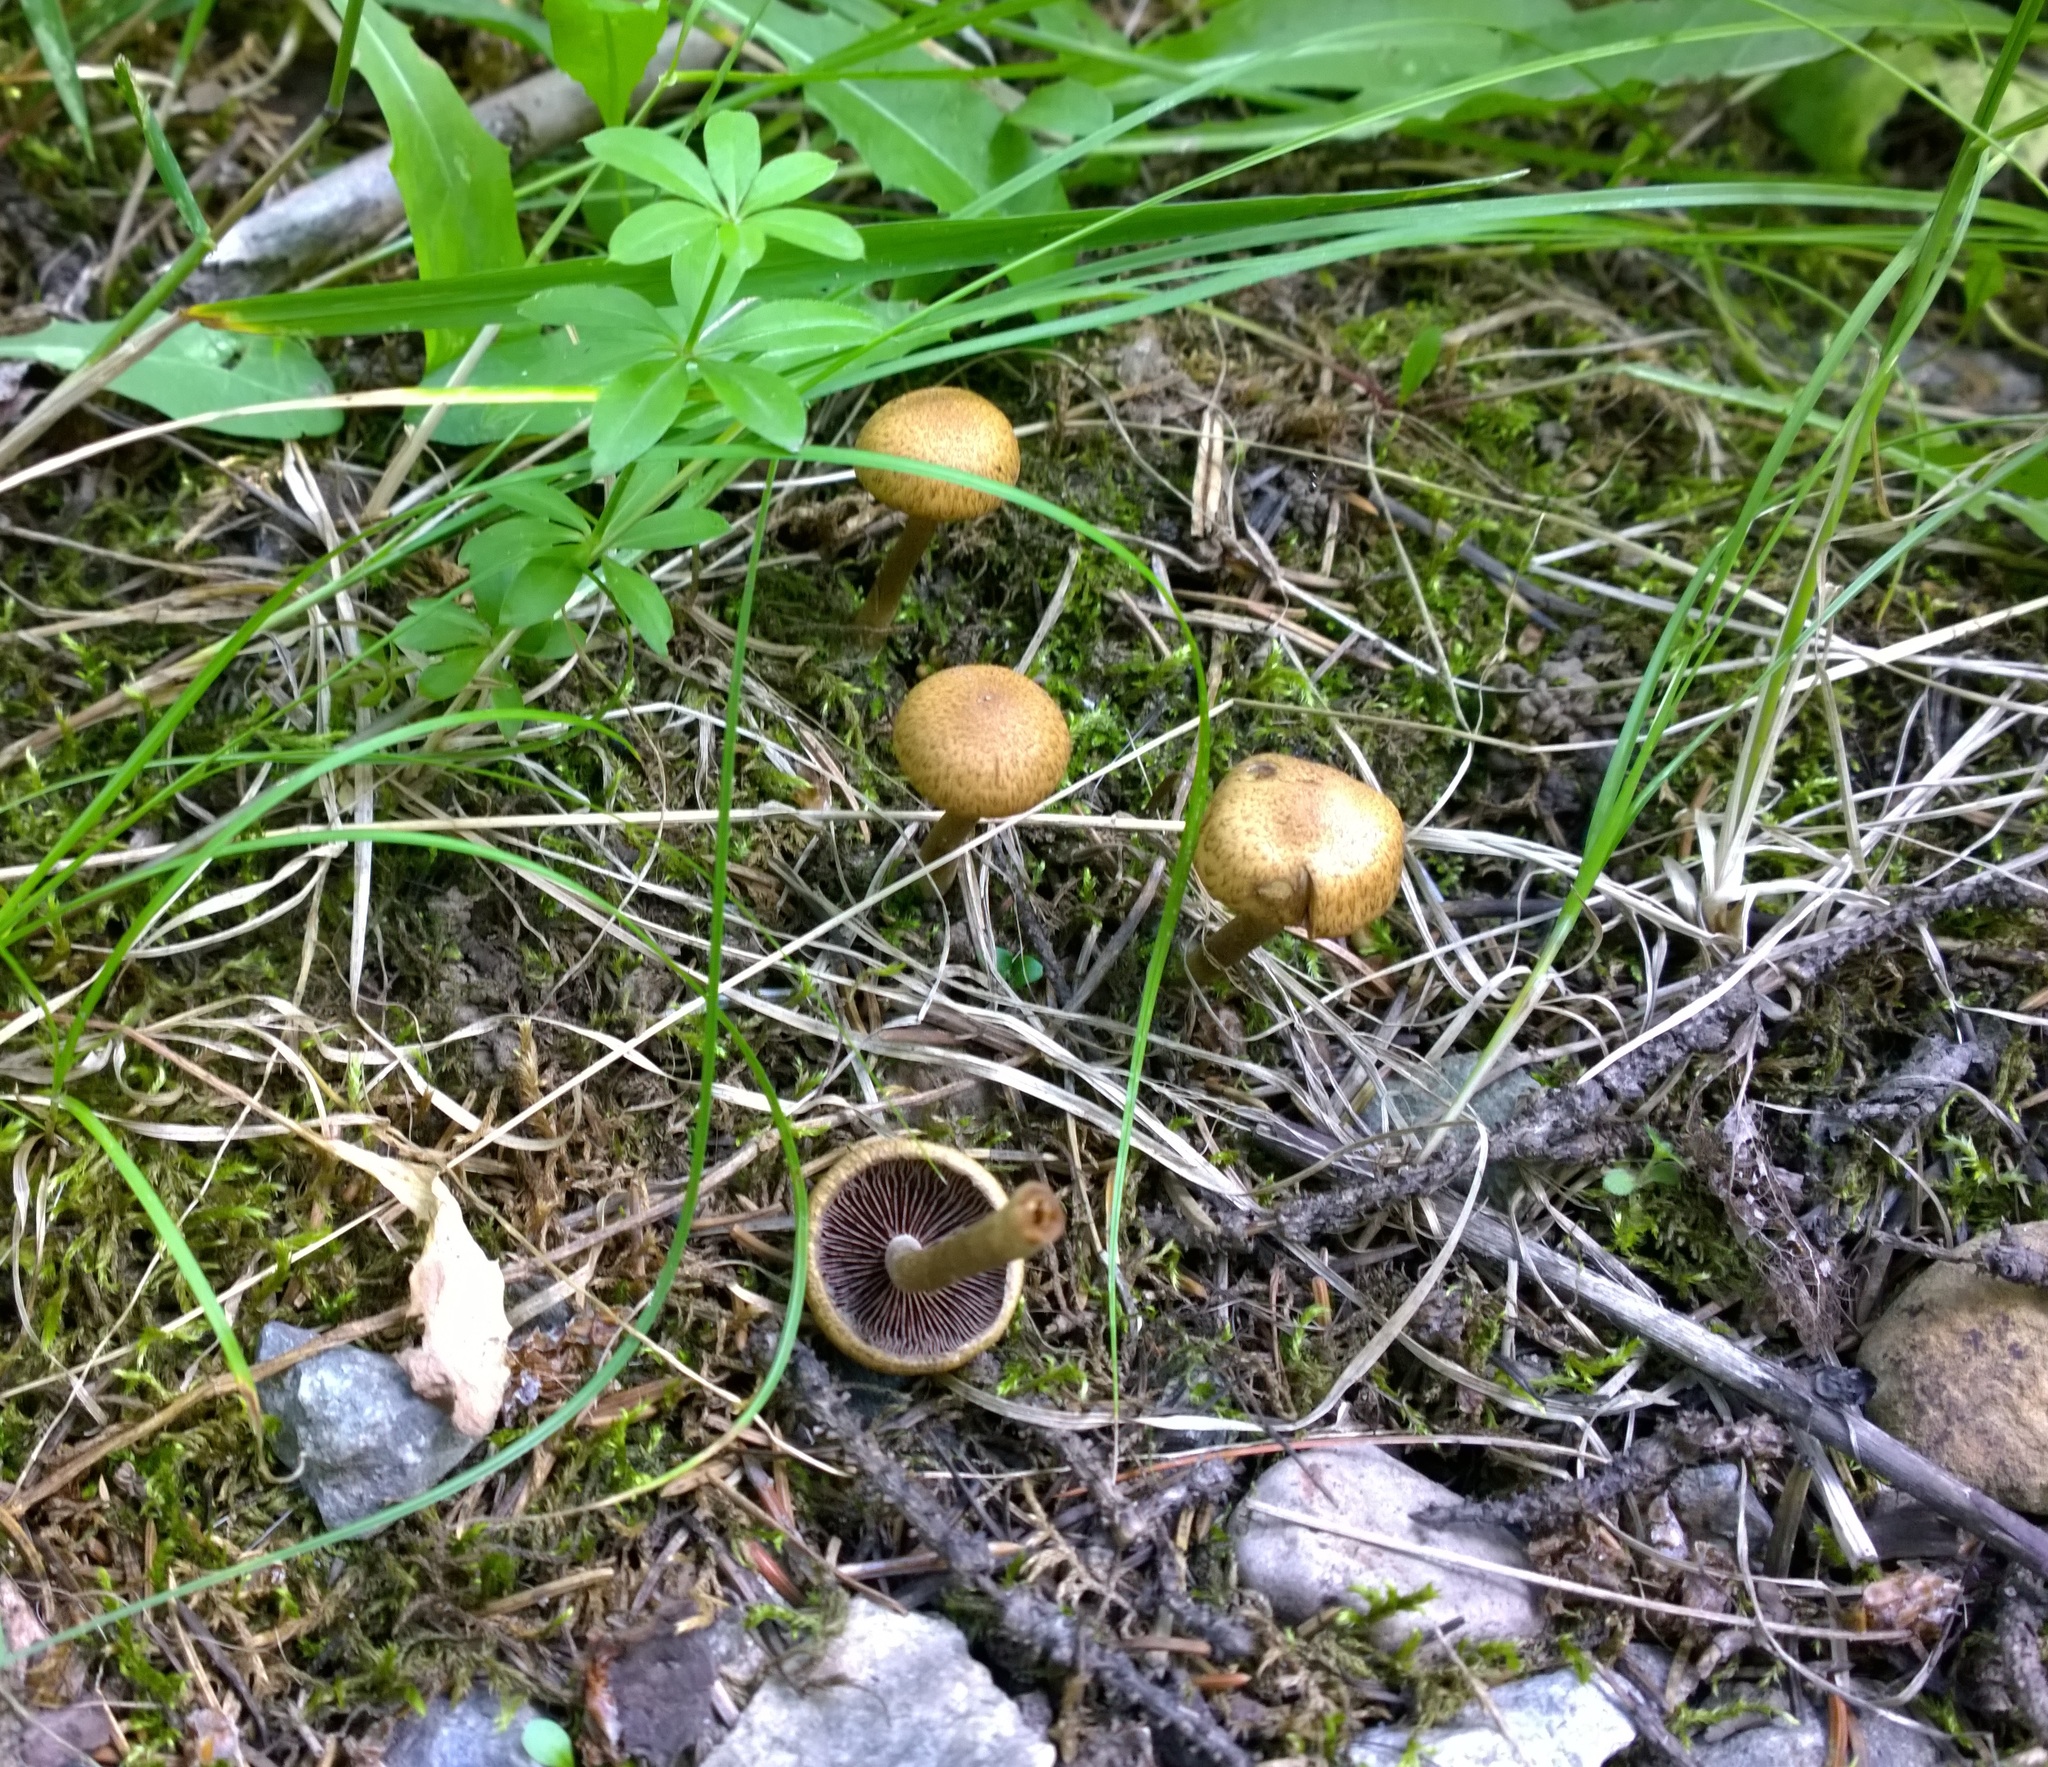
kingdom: Fungi
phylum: Basidiomycota
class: Agaricomycetes
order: Agaricales
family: Psathyrellaceae
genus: Lacrymaria
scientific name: Lacrymaria lacrymabunda
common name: Weeping widow
